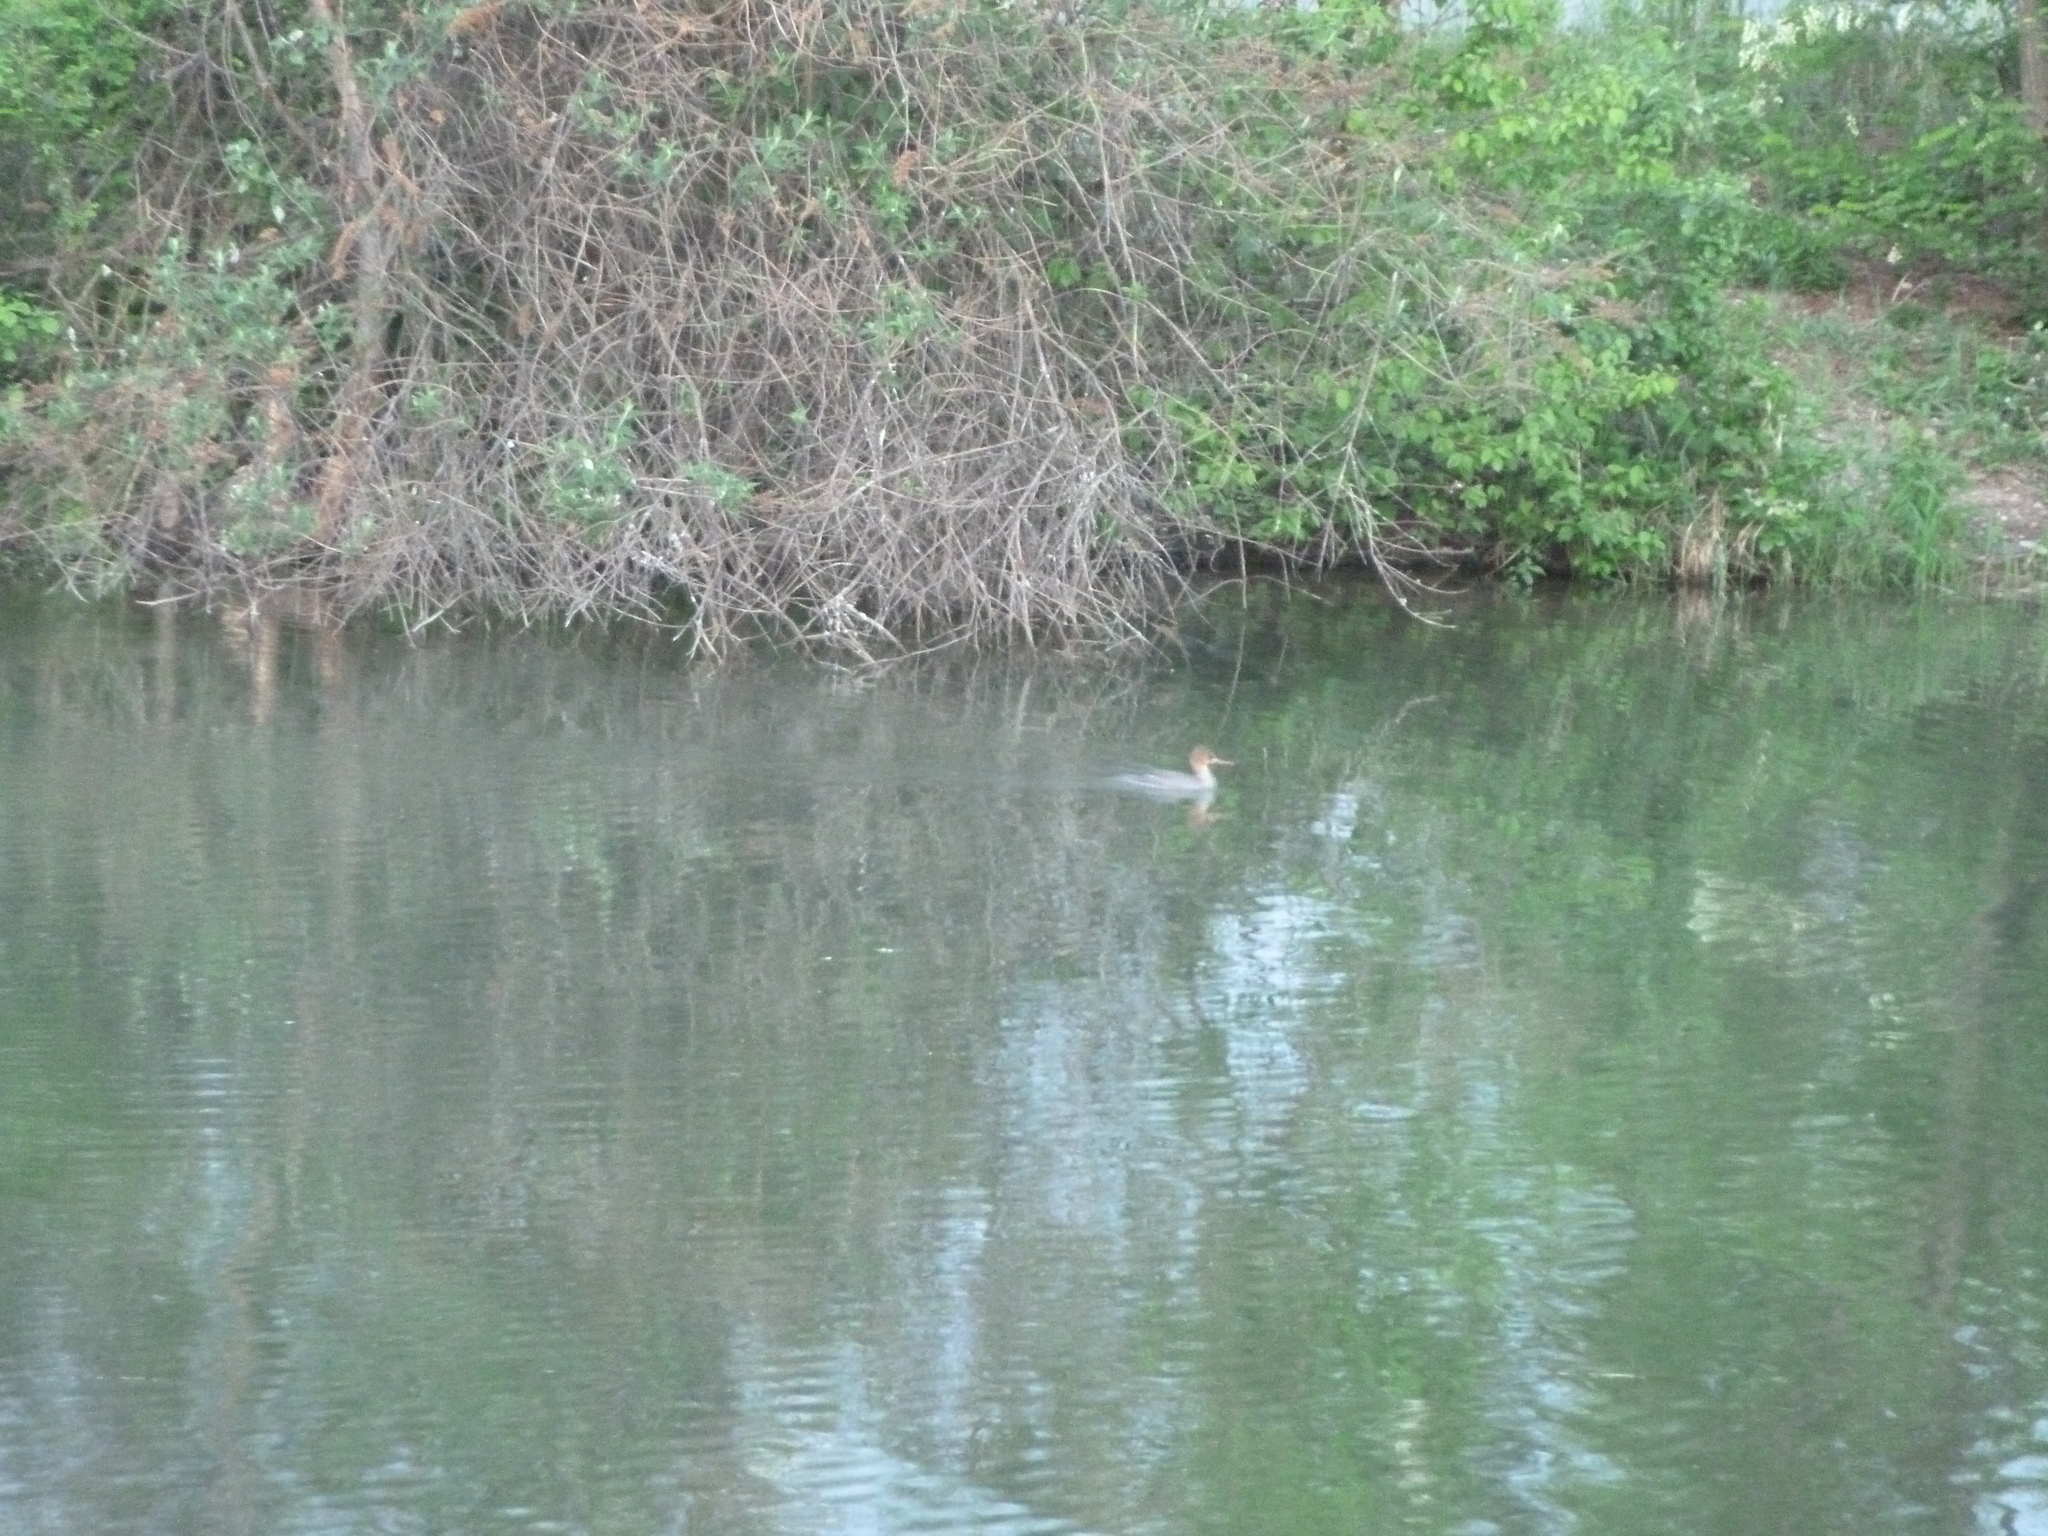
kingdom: Animalia
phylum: Chordata
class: Aves
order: Anseriformes
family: Anatidae
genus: Mergus
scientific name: Mergus serrator
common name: Red-breasted merganser
